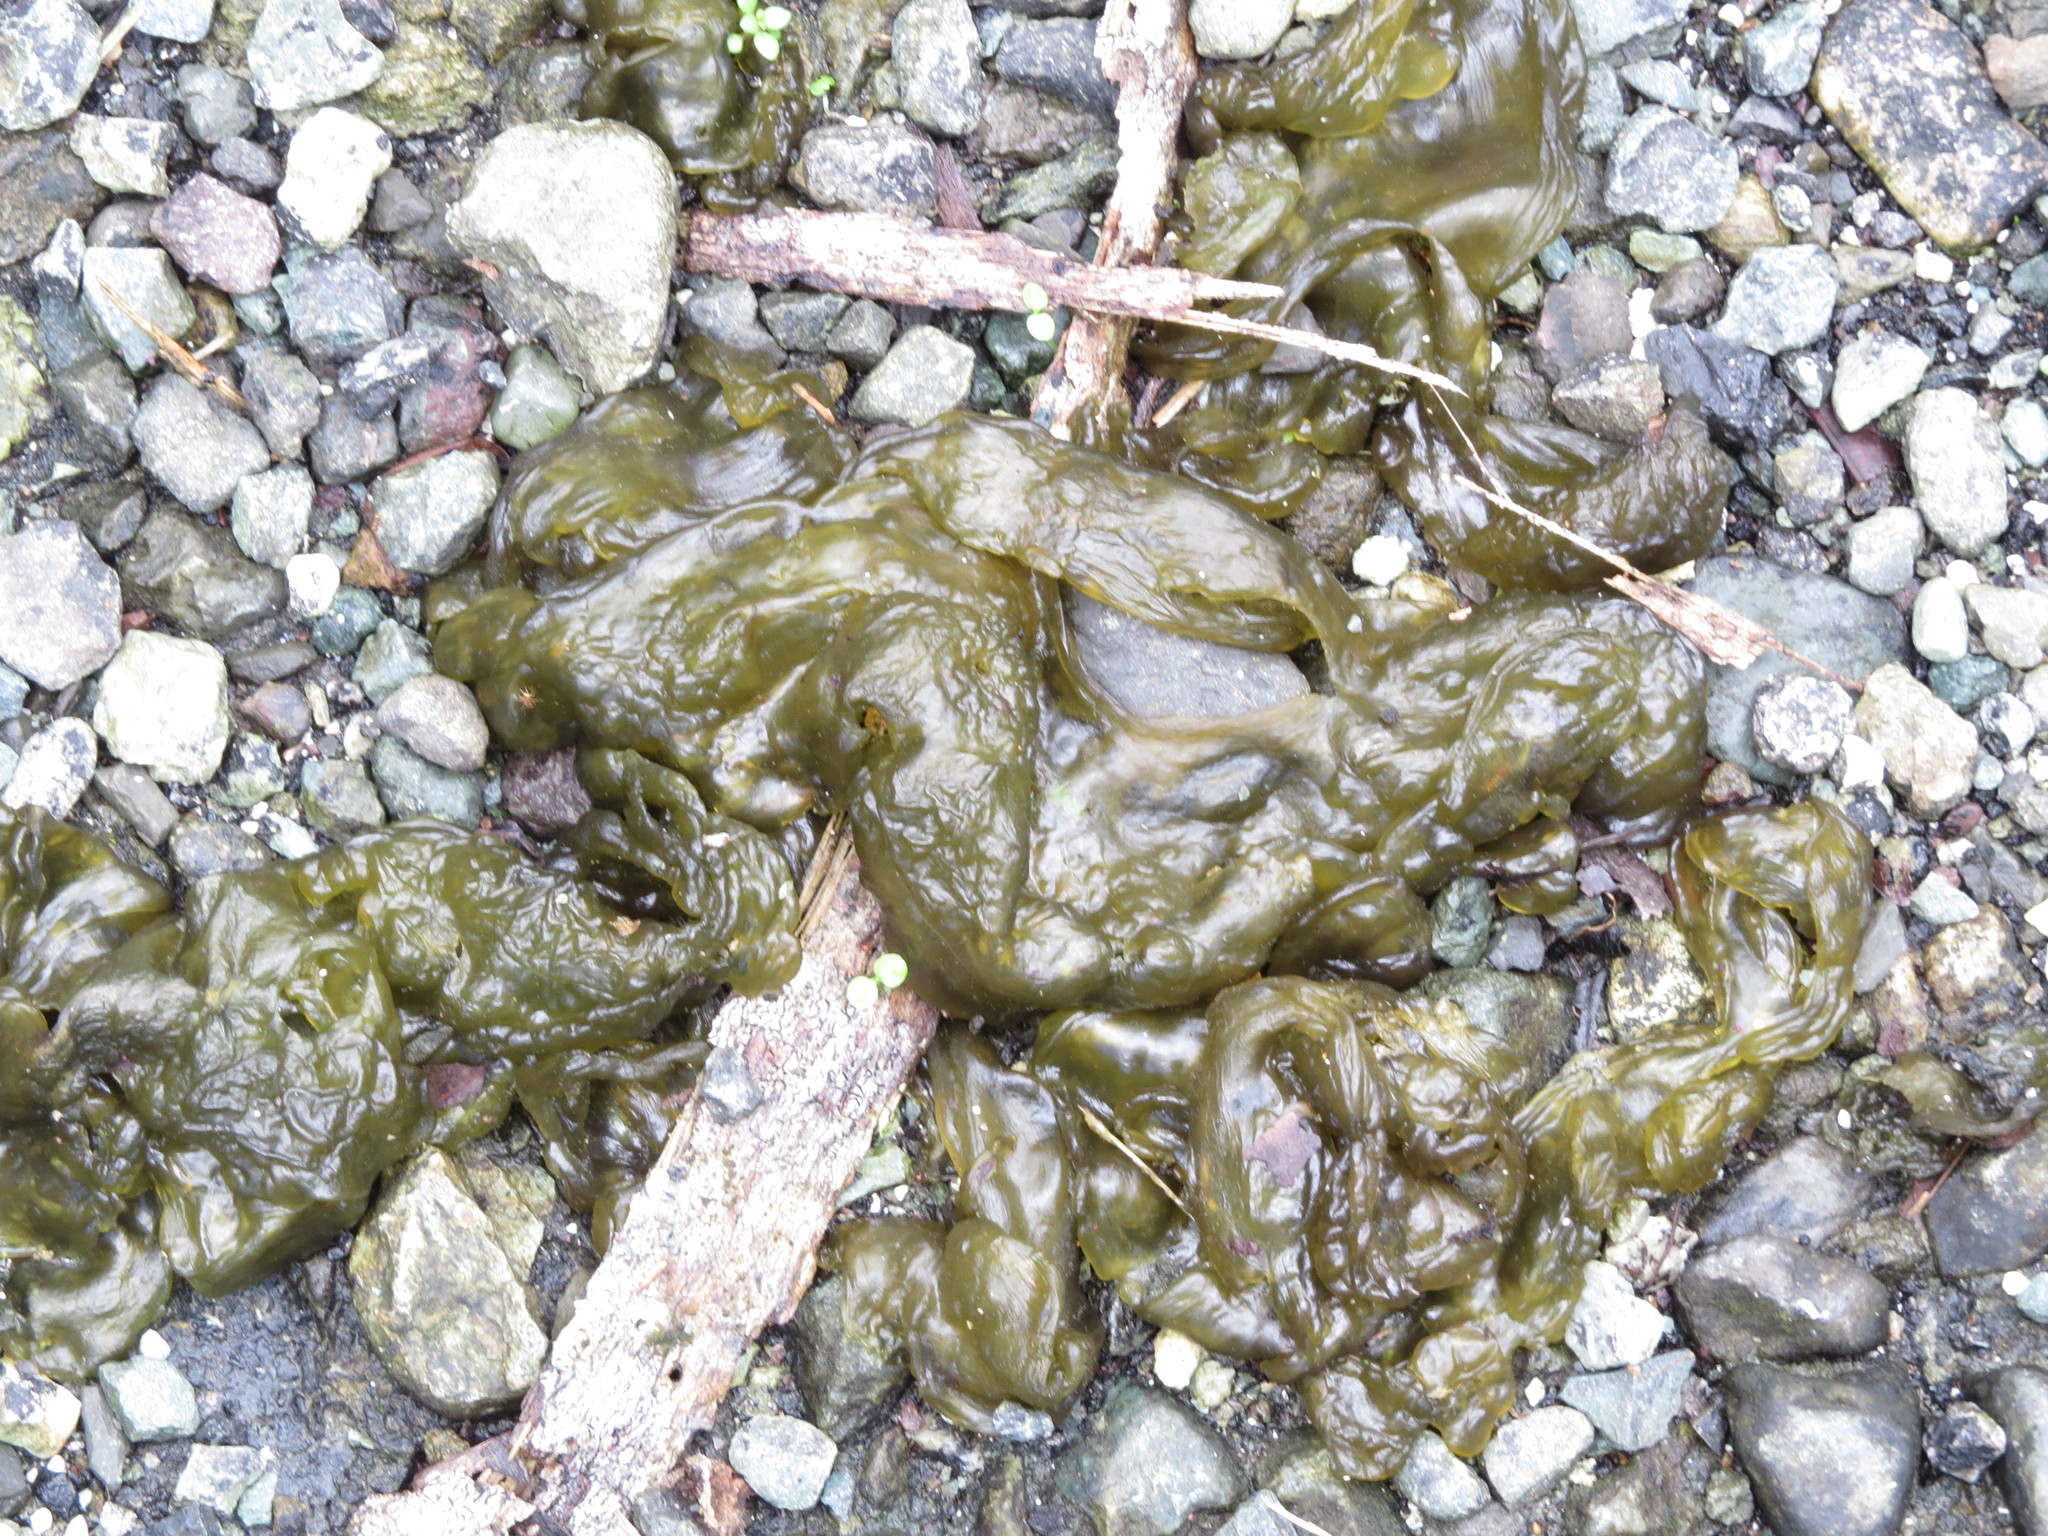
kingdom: Bacteria
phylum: Cyanobacteria
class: Cyanobacteriia
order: Cyanobacteriales
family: Nostocaceae
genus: Nostoc
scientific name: Nostoc commune
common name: Star jelly
